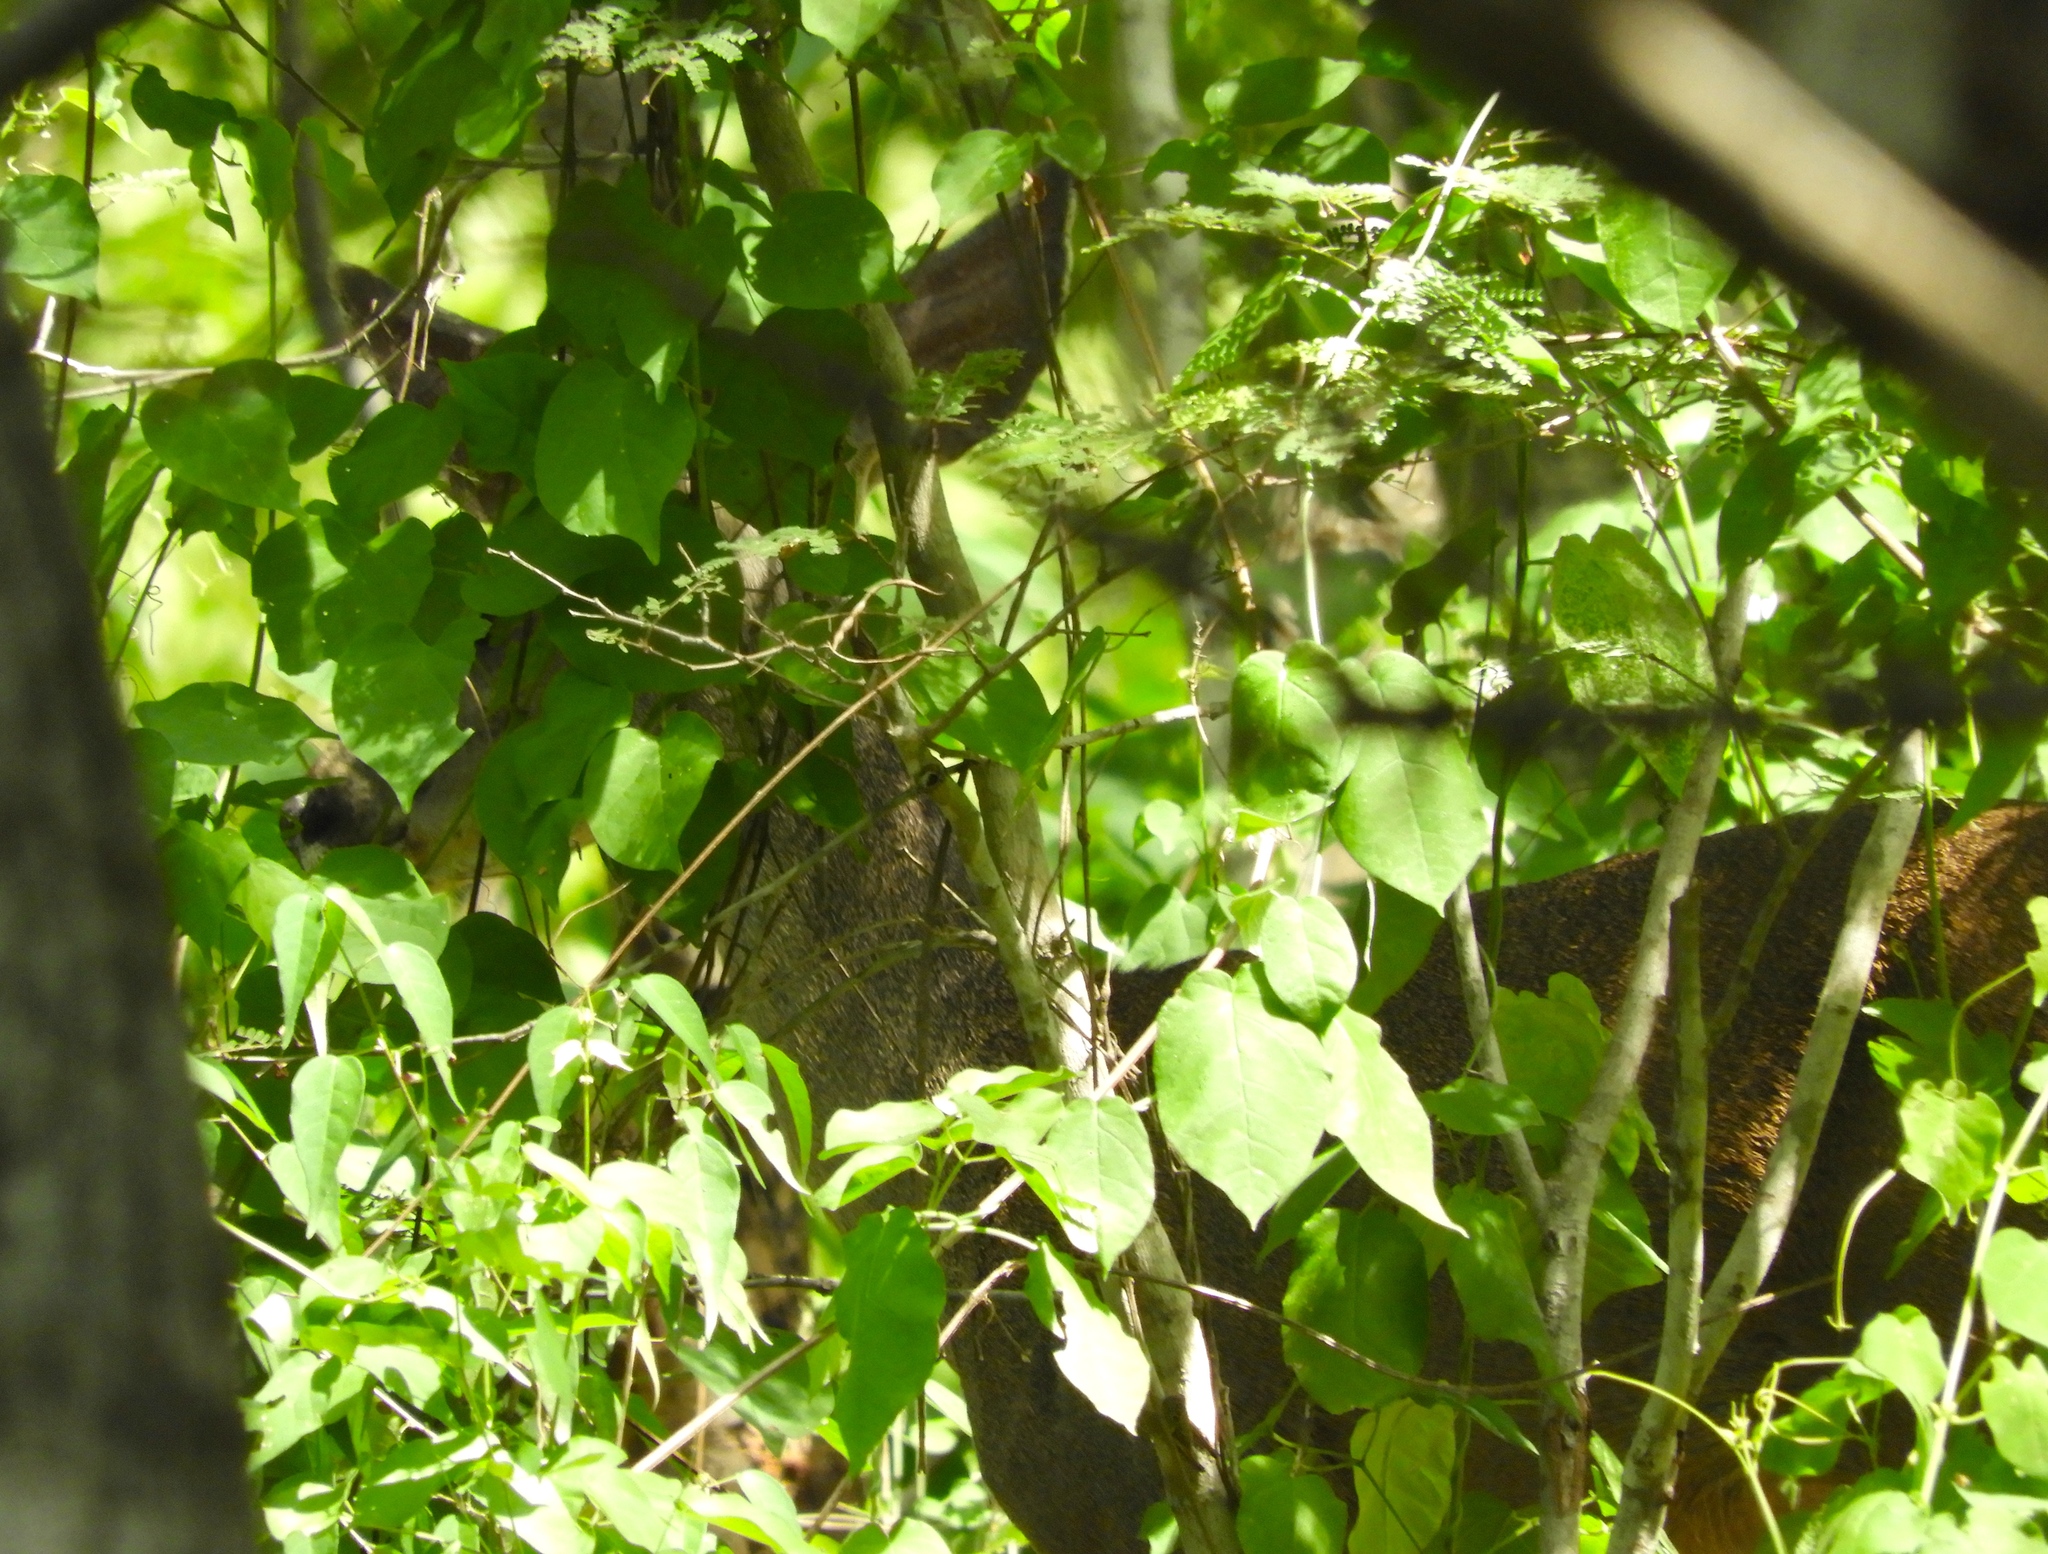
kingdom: Animalia
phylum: Chordata
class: Mammalia
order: Artiodactyla
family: Cervidae
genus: Odocoileus
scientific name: Odocoileus virginianus
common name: White-tailed deer
